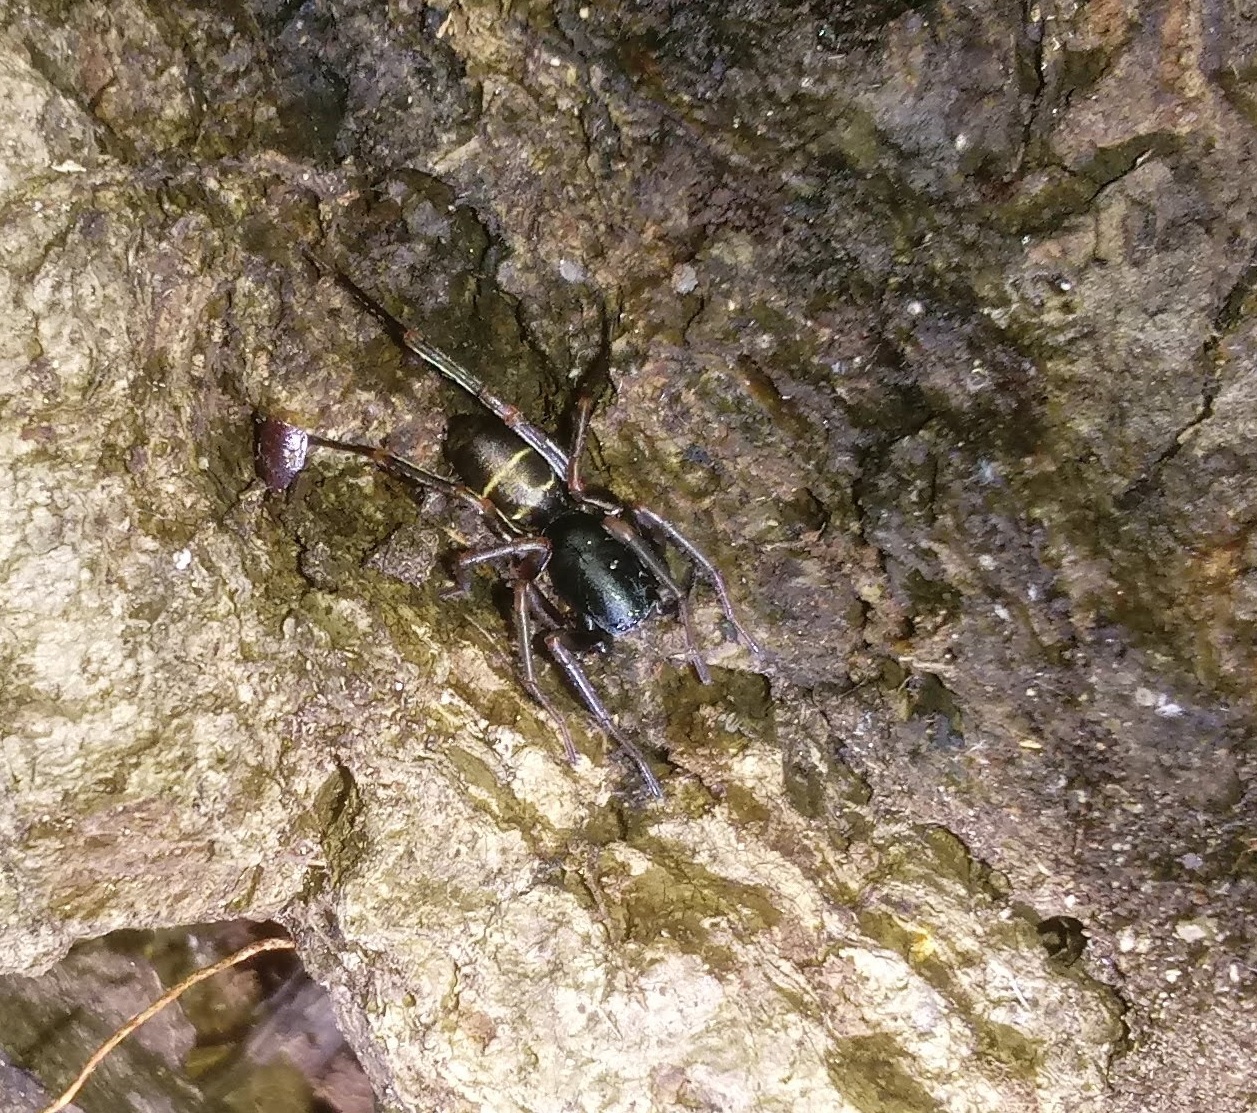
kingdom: Animalia
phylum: Arthropoda
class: Arachnida
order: Araneae
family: Corinnidae
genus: Castianeira
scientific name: Castianeira cingulata
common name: Two-banded ant-mimic sac spider
